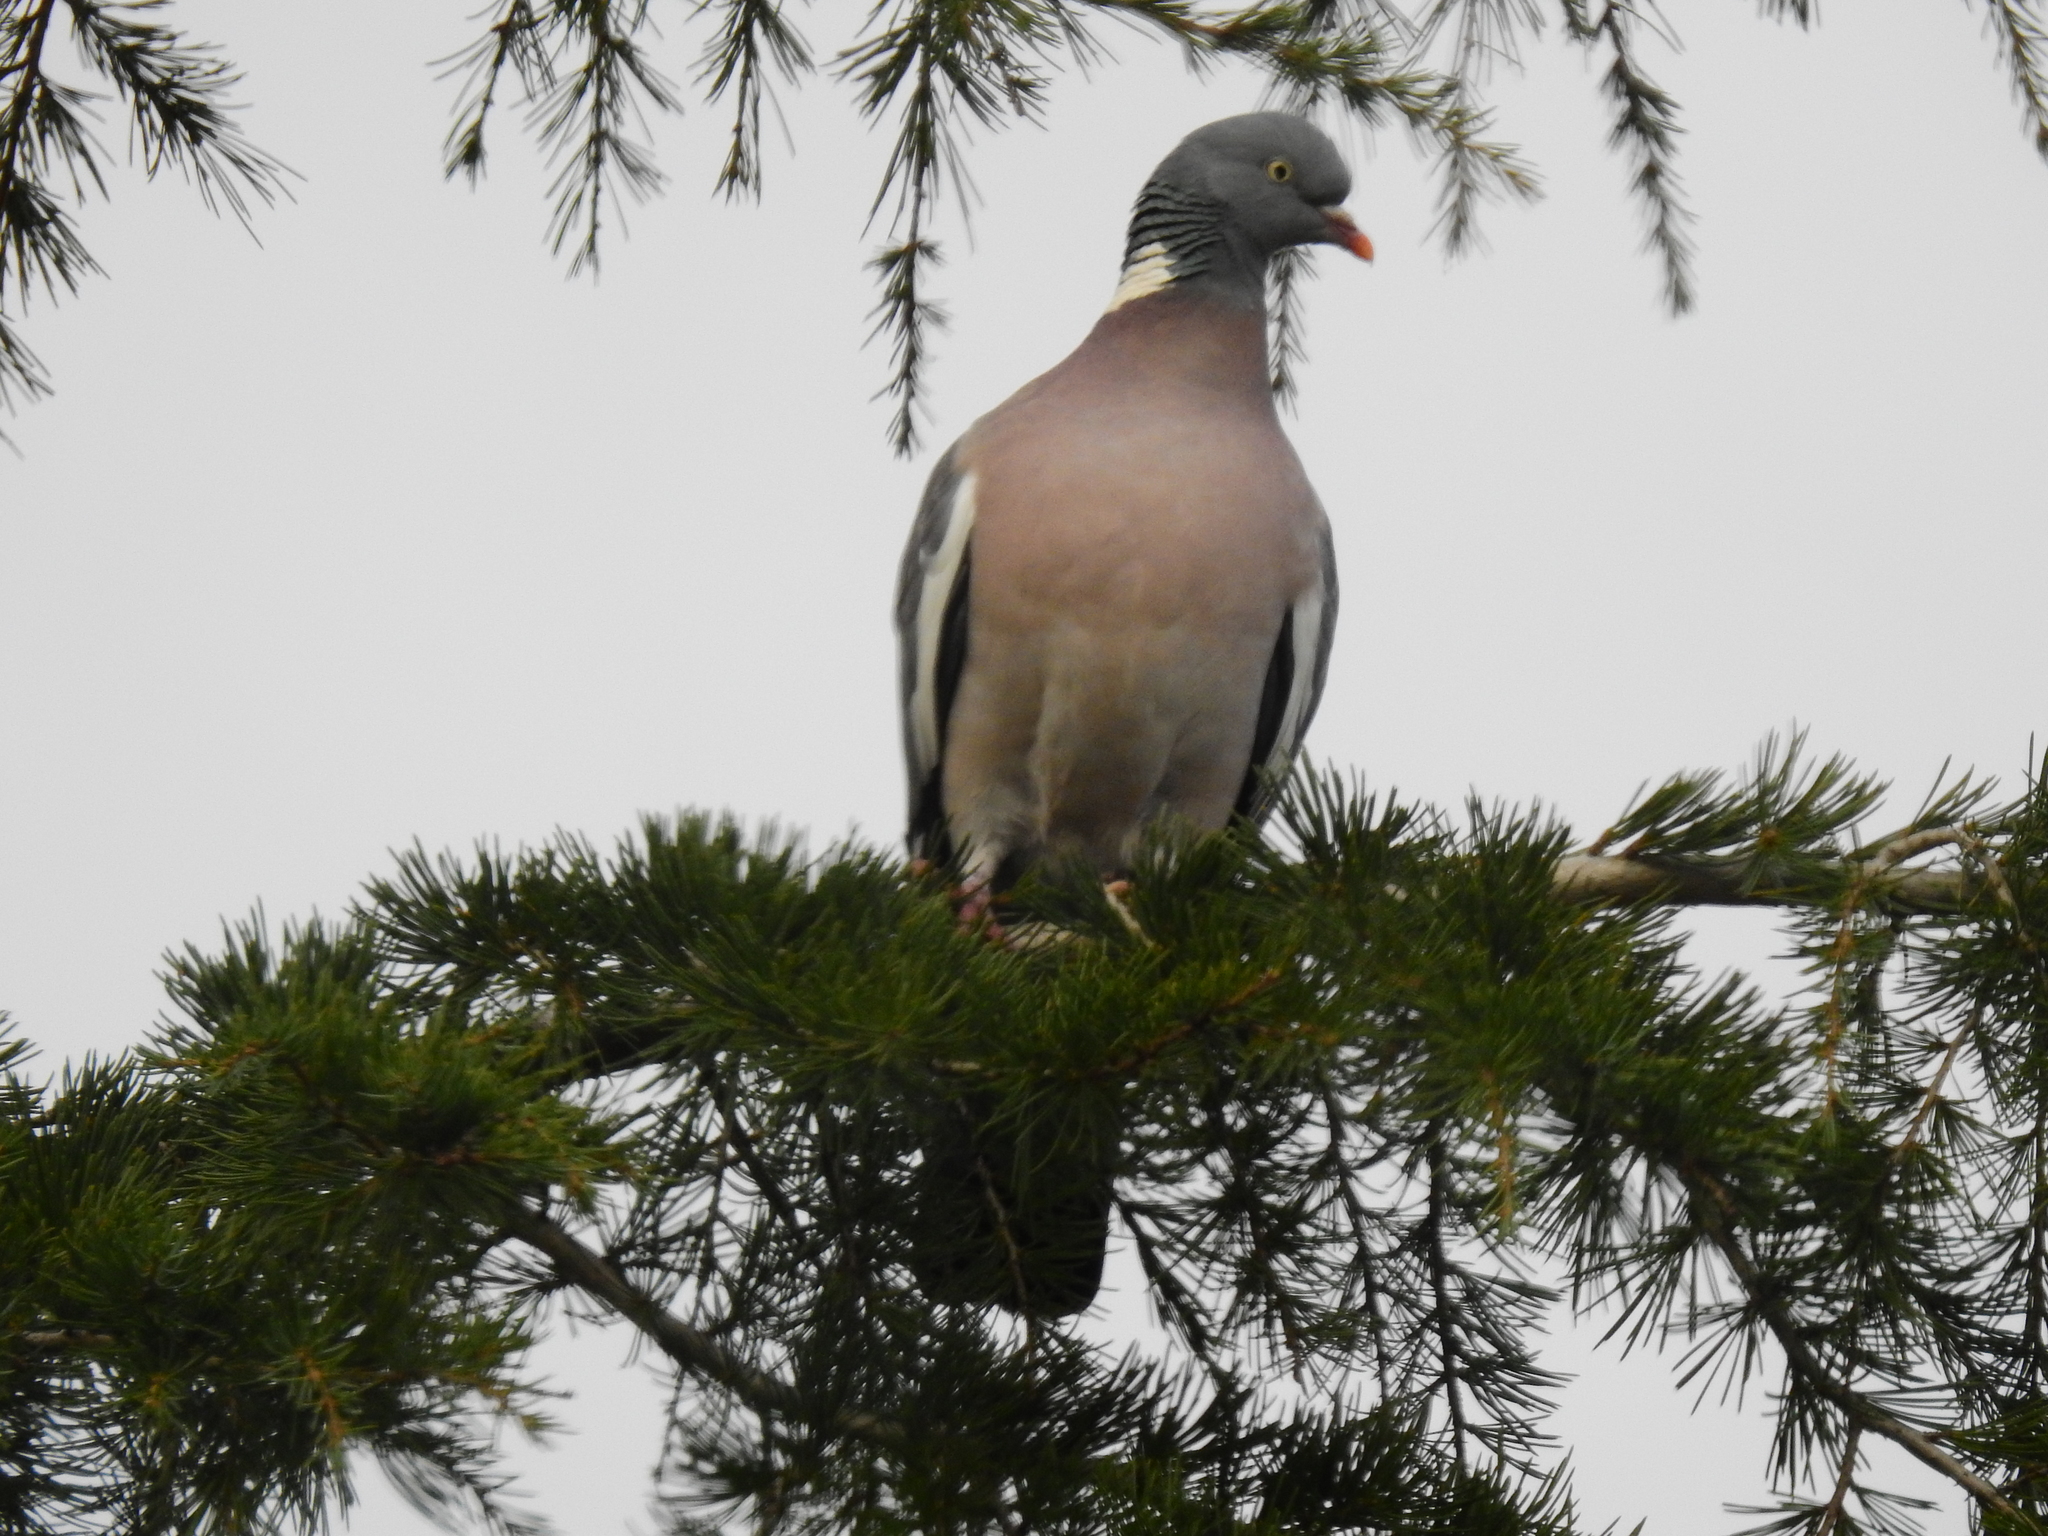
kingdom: Animalia
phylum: Chordata
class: Aves
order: Columbiformes
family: Columbidae
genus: Columba
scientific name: Columba palumbus
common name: Common wood pigeon
